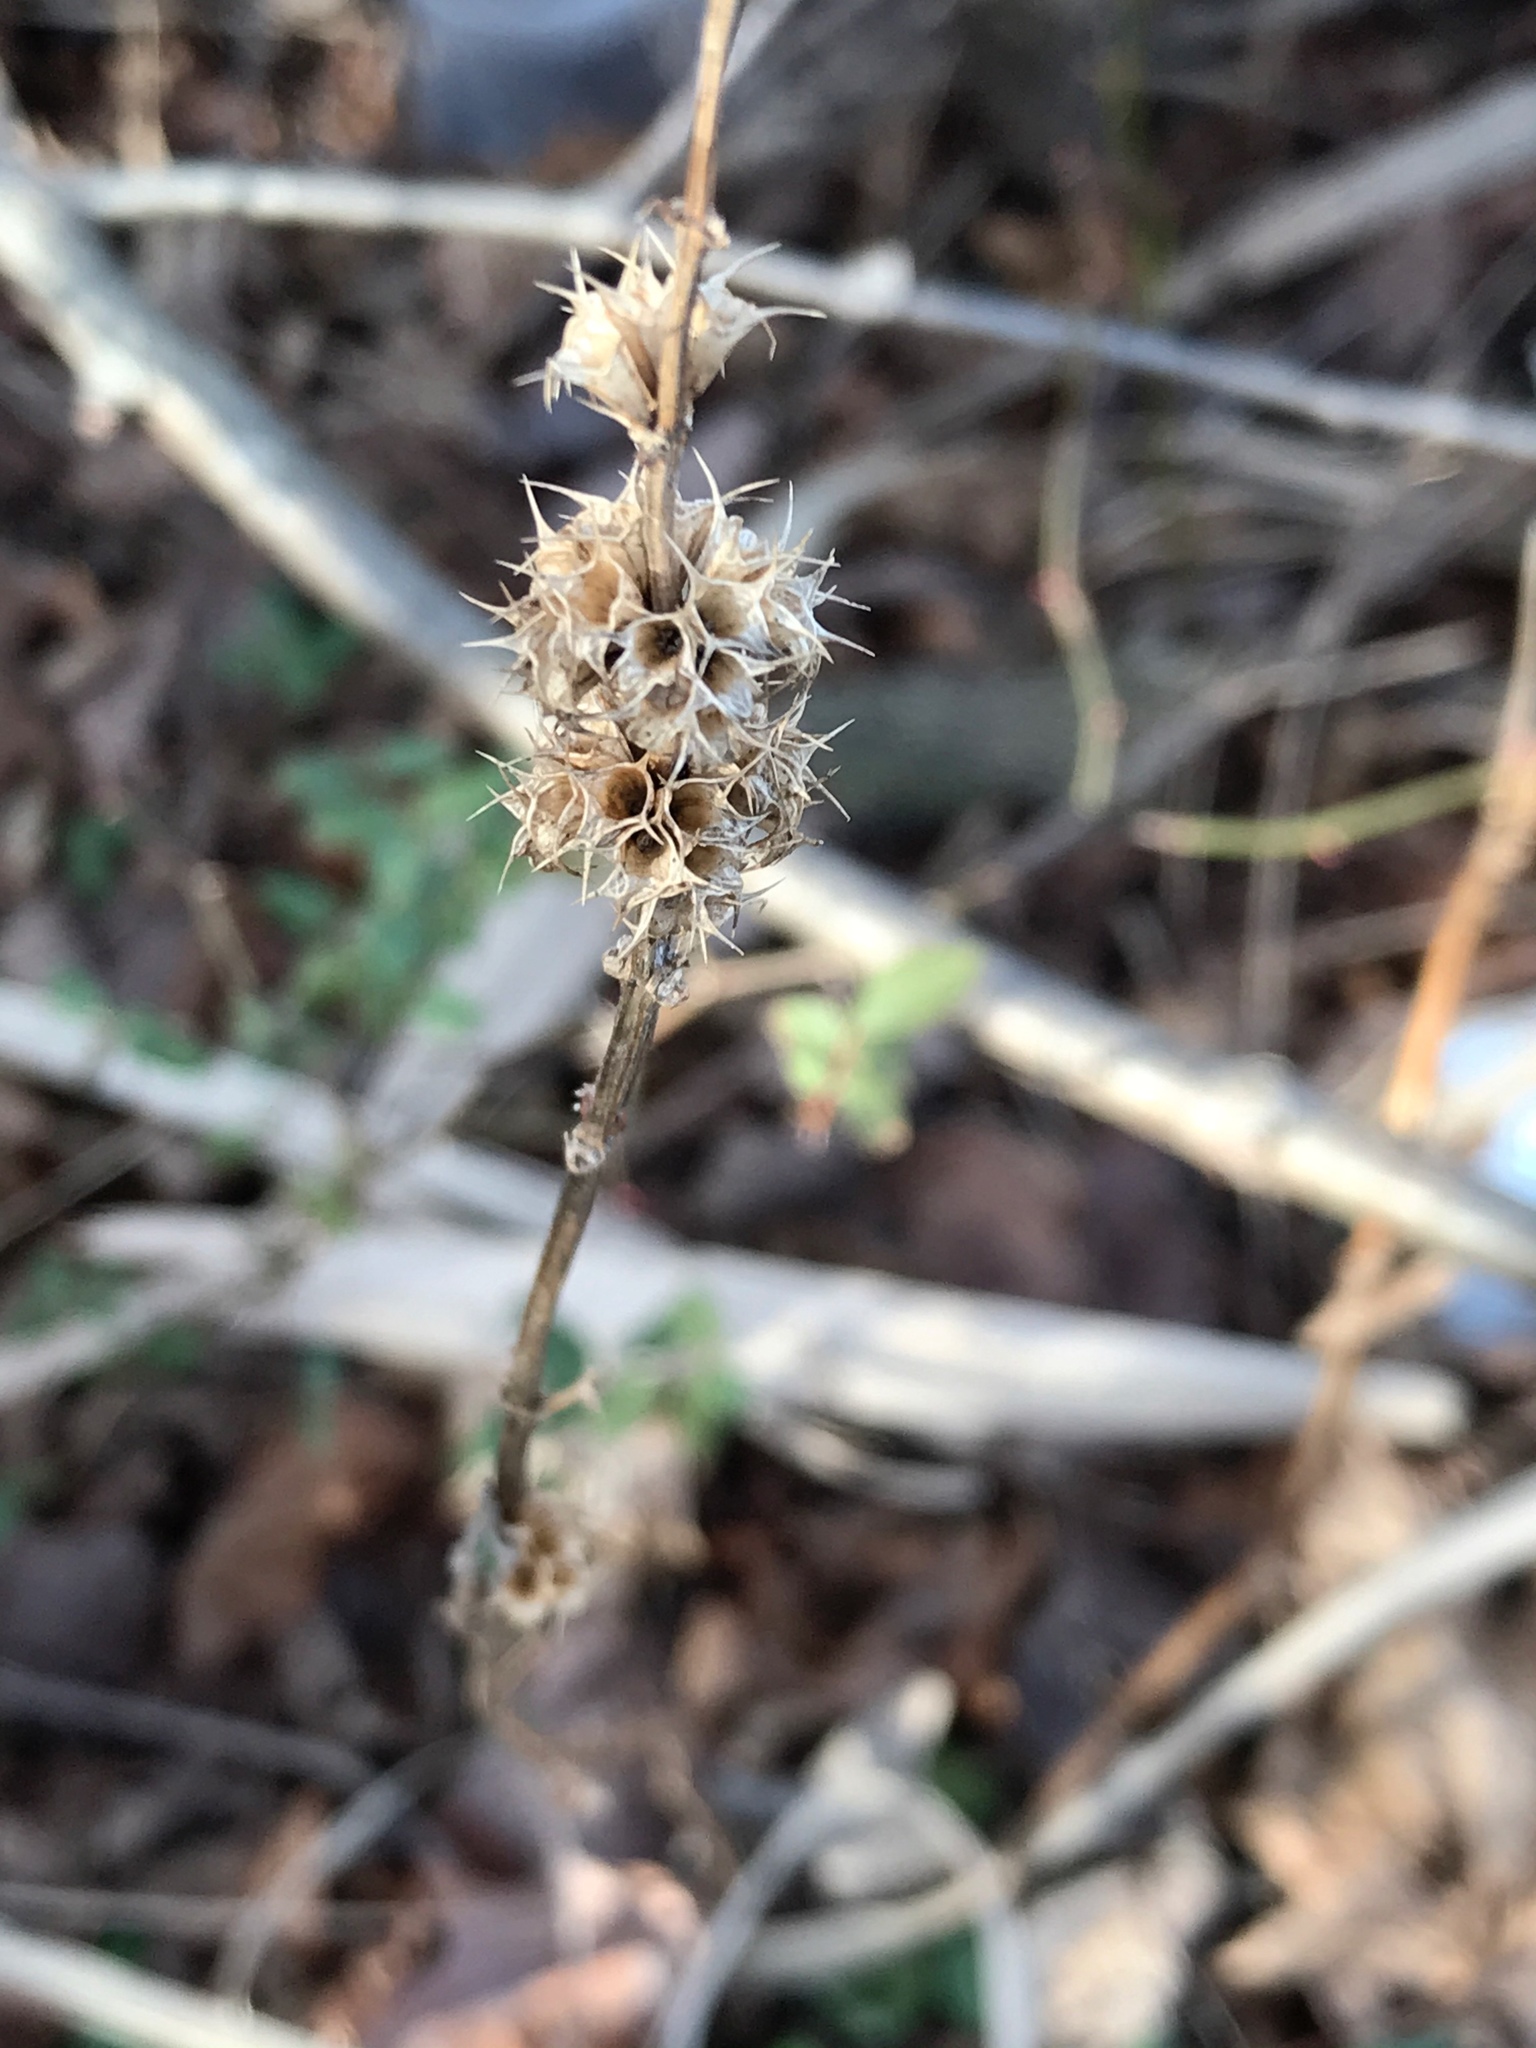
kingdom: Plantae
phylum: Tracheophyta
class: Magnoliopsida
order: Lamiales
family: Lamiaceae
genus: Leonurus
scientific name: Leonurus cardiaca
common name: Motherwort
